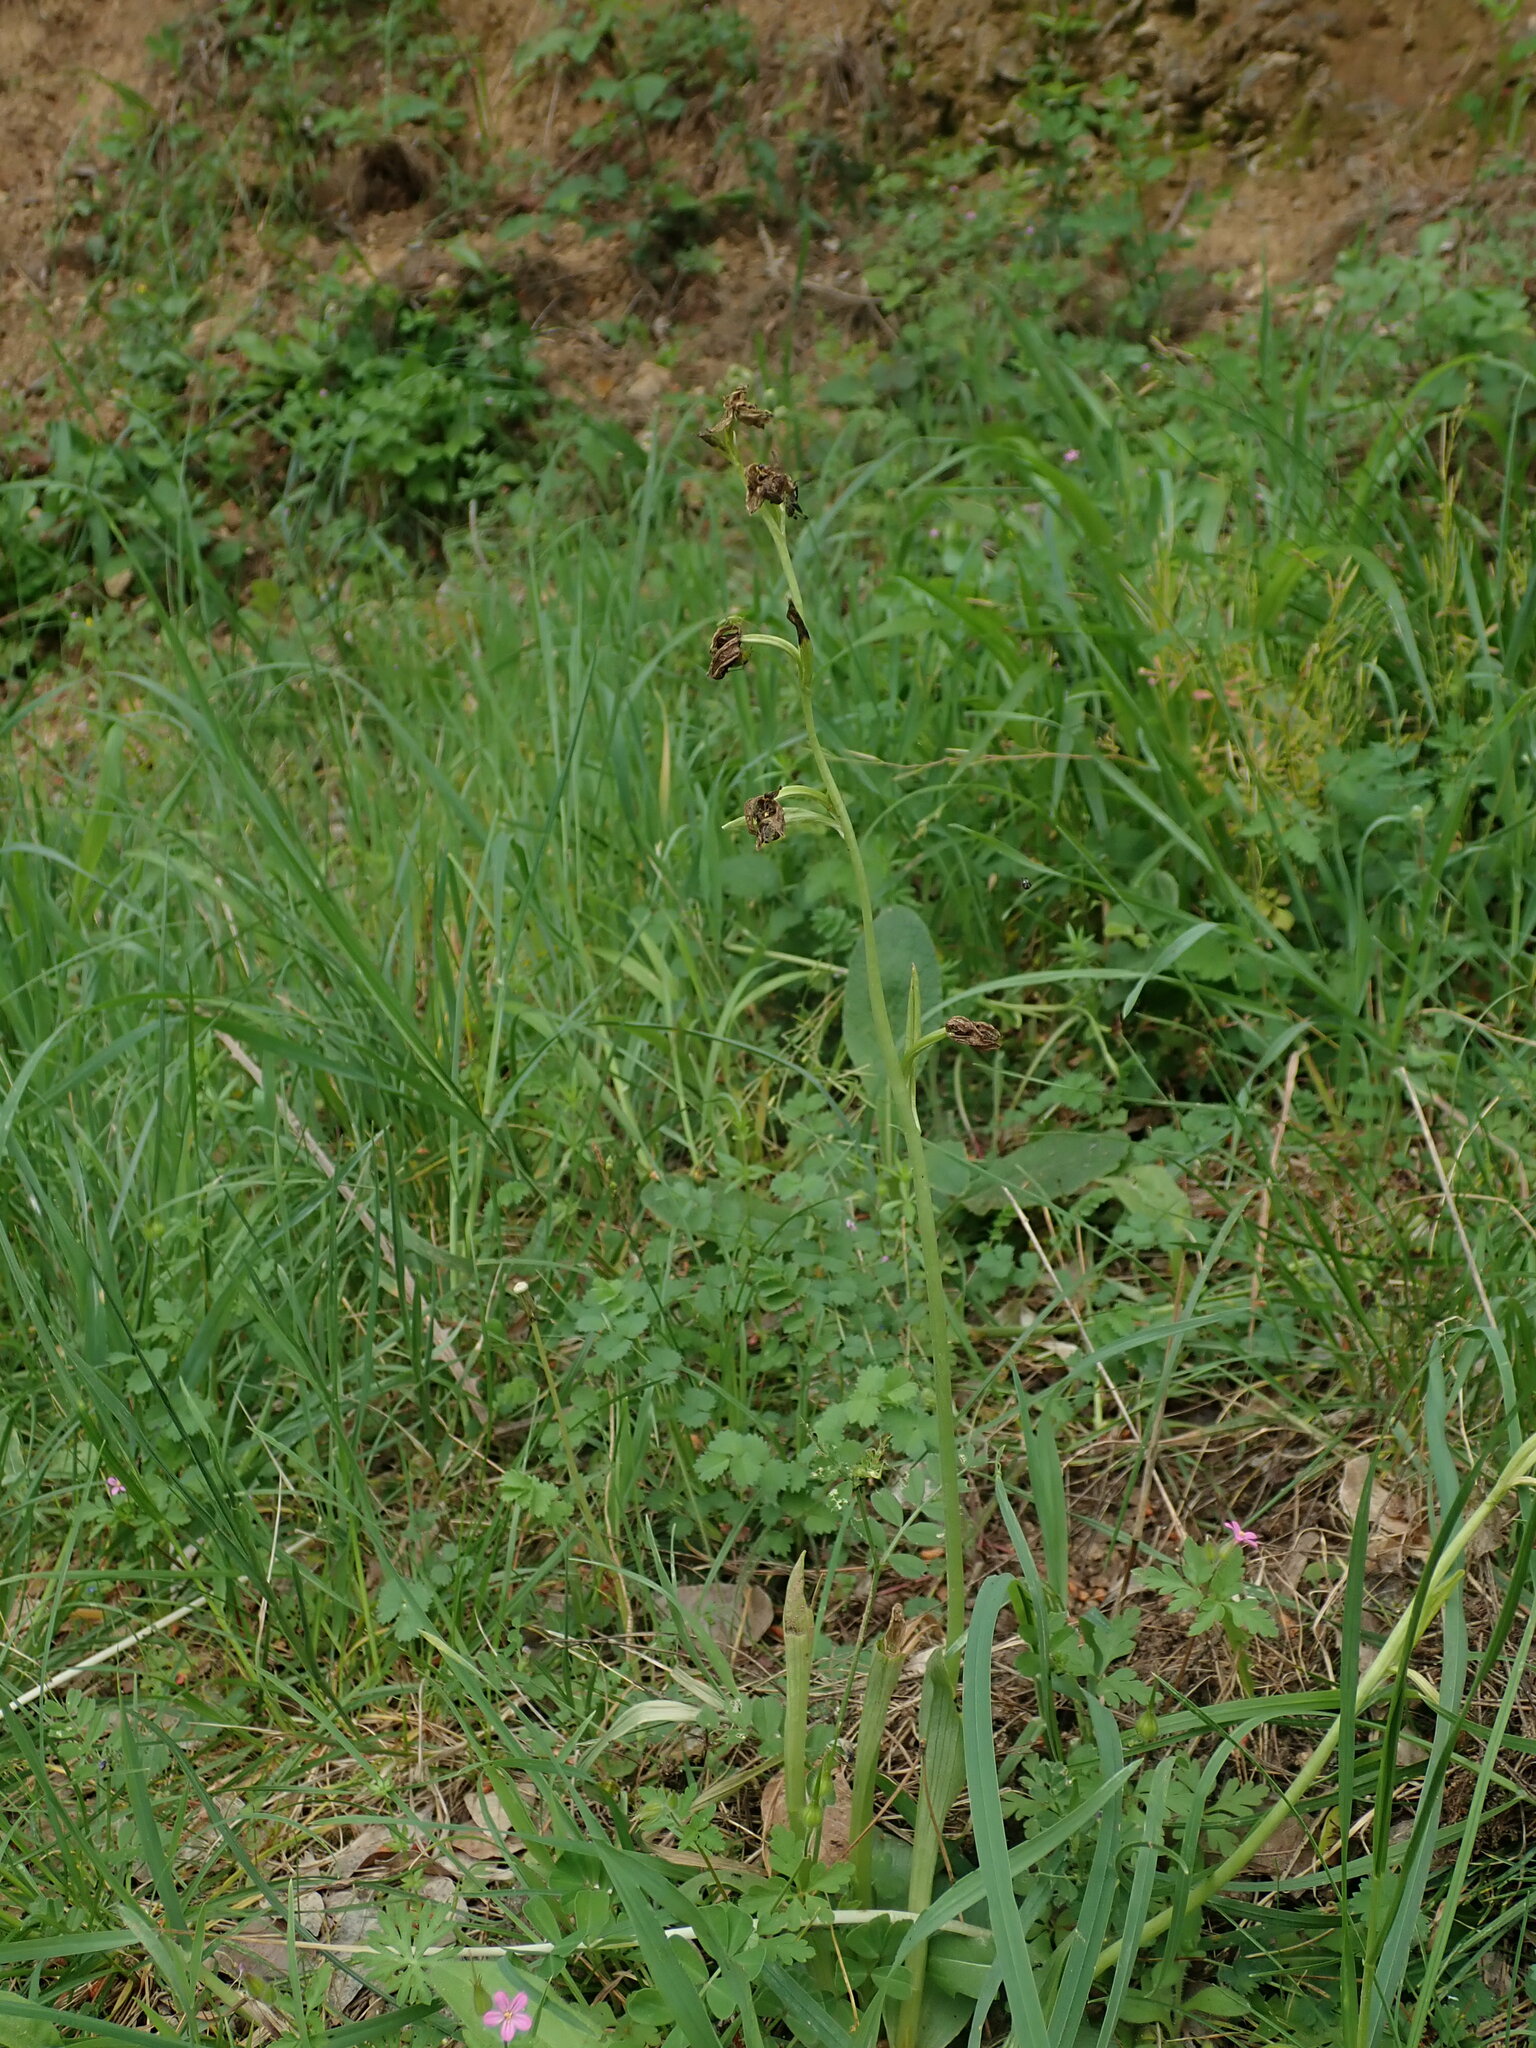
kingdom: Plantae
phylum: Tracheophyta
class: Liliopsida
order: Asparagales
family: Orchidaceae
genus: Ophrys
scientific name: Ophrys
